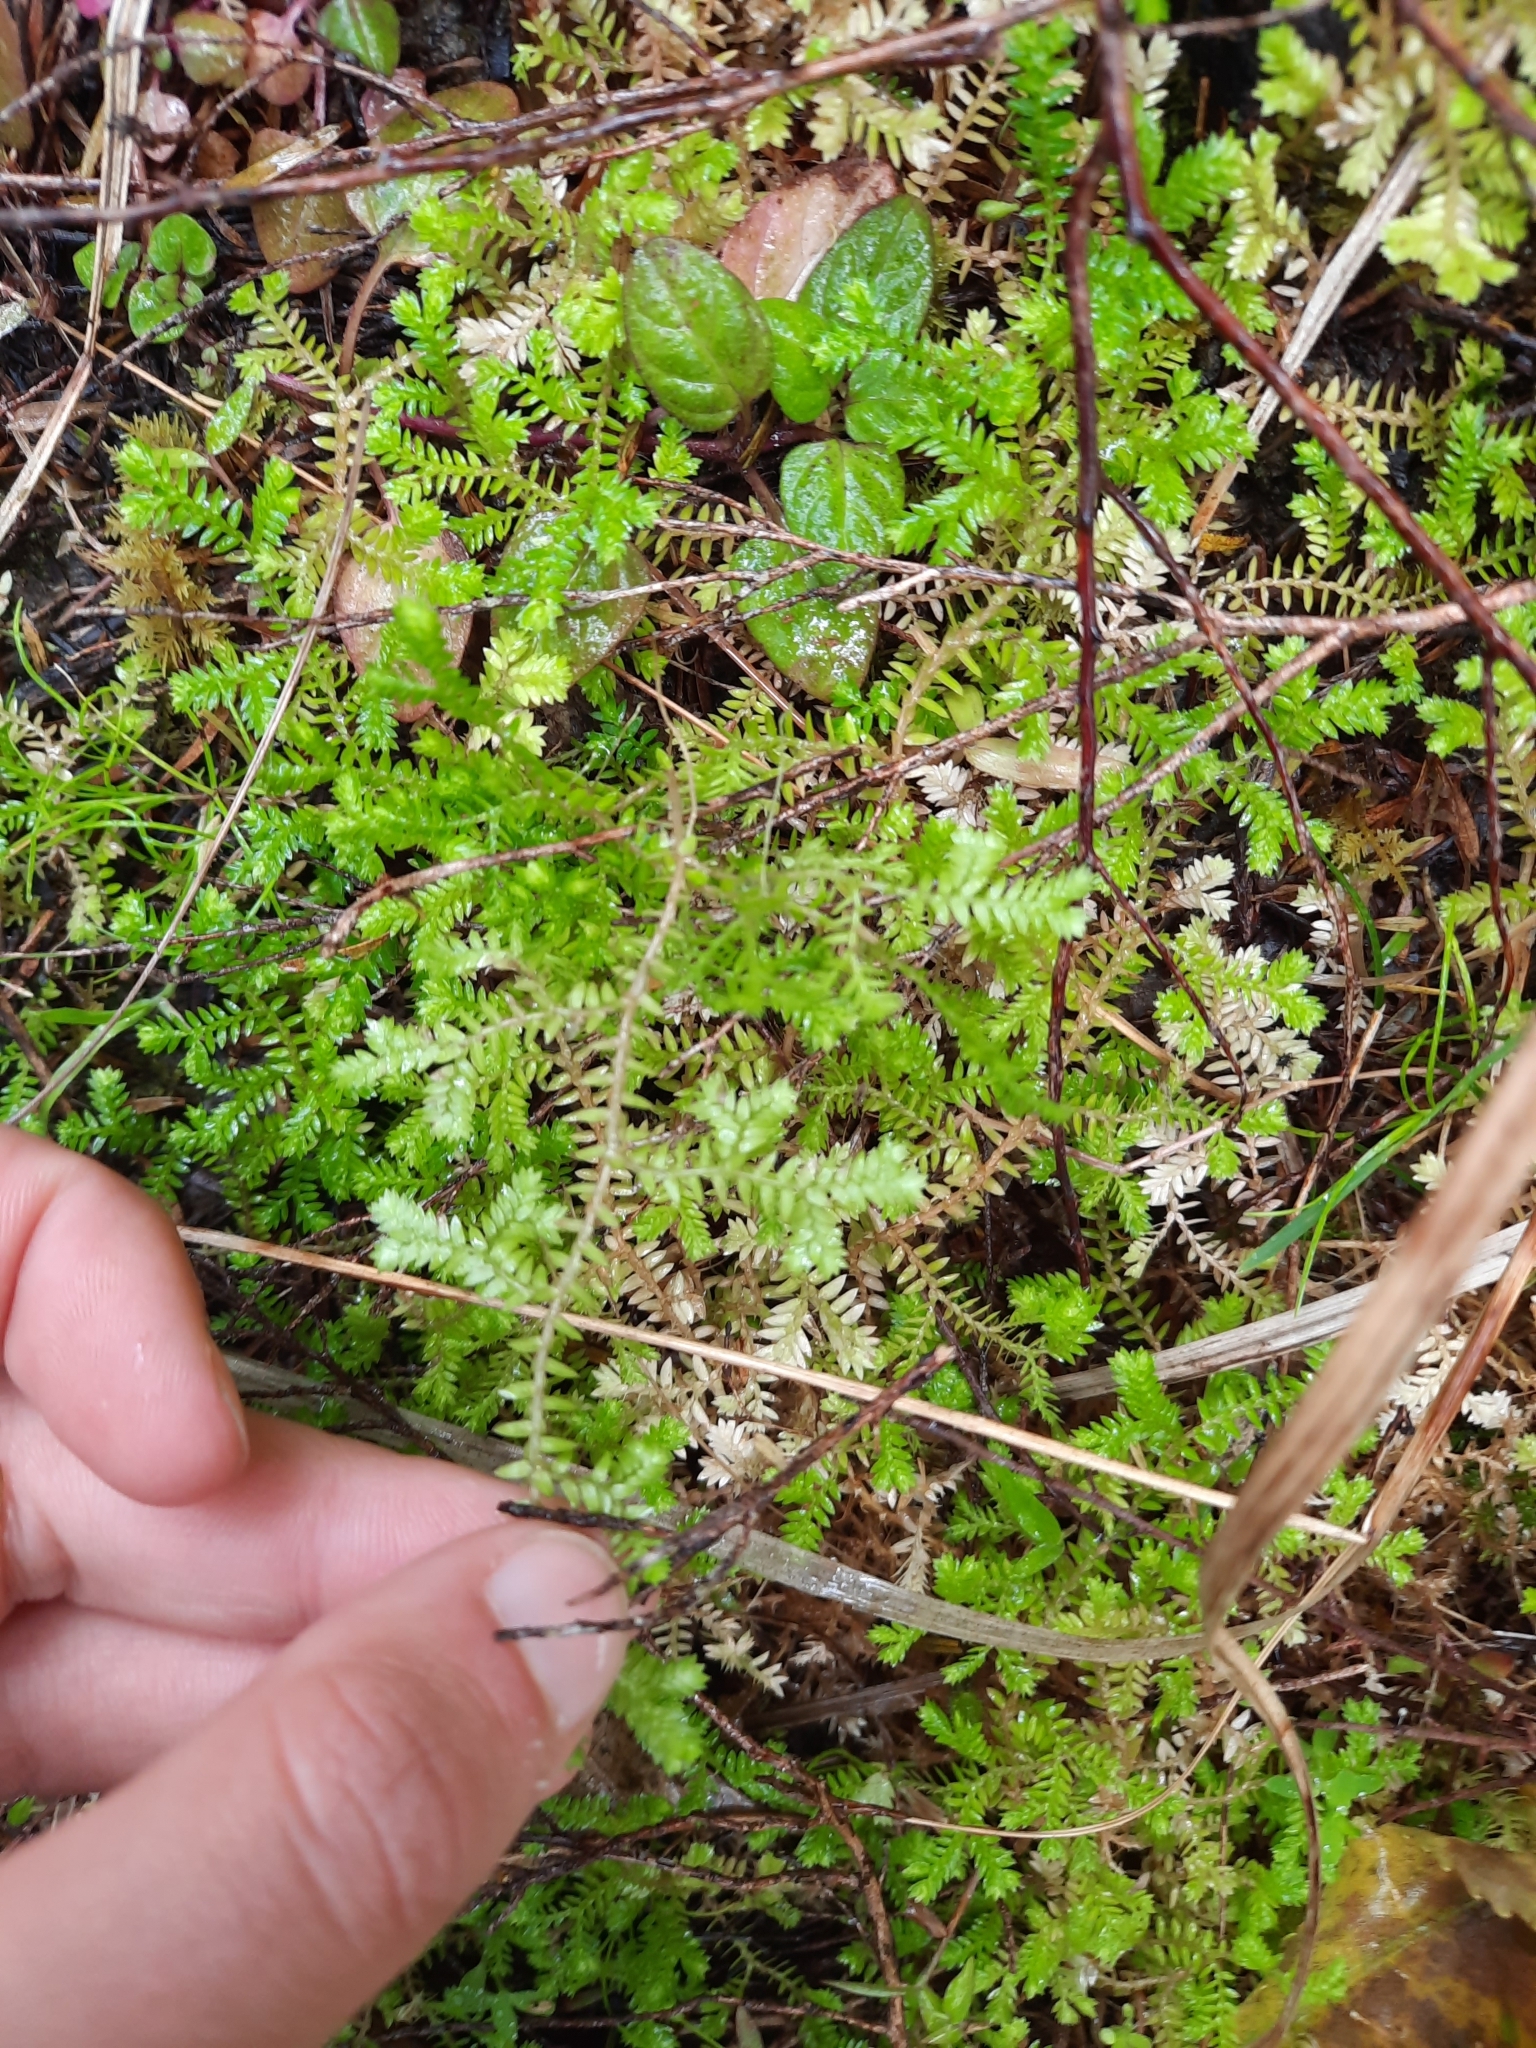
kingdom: Plantae
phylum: Tracheophyta
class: Lycopodiopsida
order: Selaginellales
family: Selaginellaceae
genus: Selaginella
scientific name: Selaginella kraussiana
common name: Krauss' spikemoss
